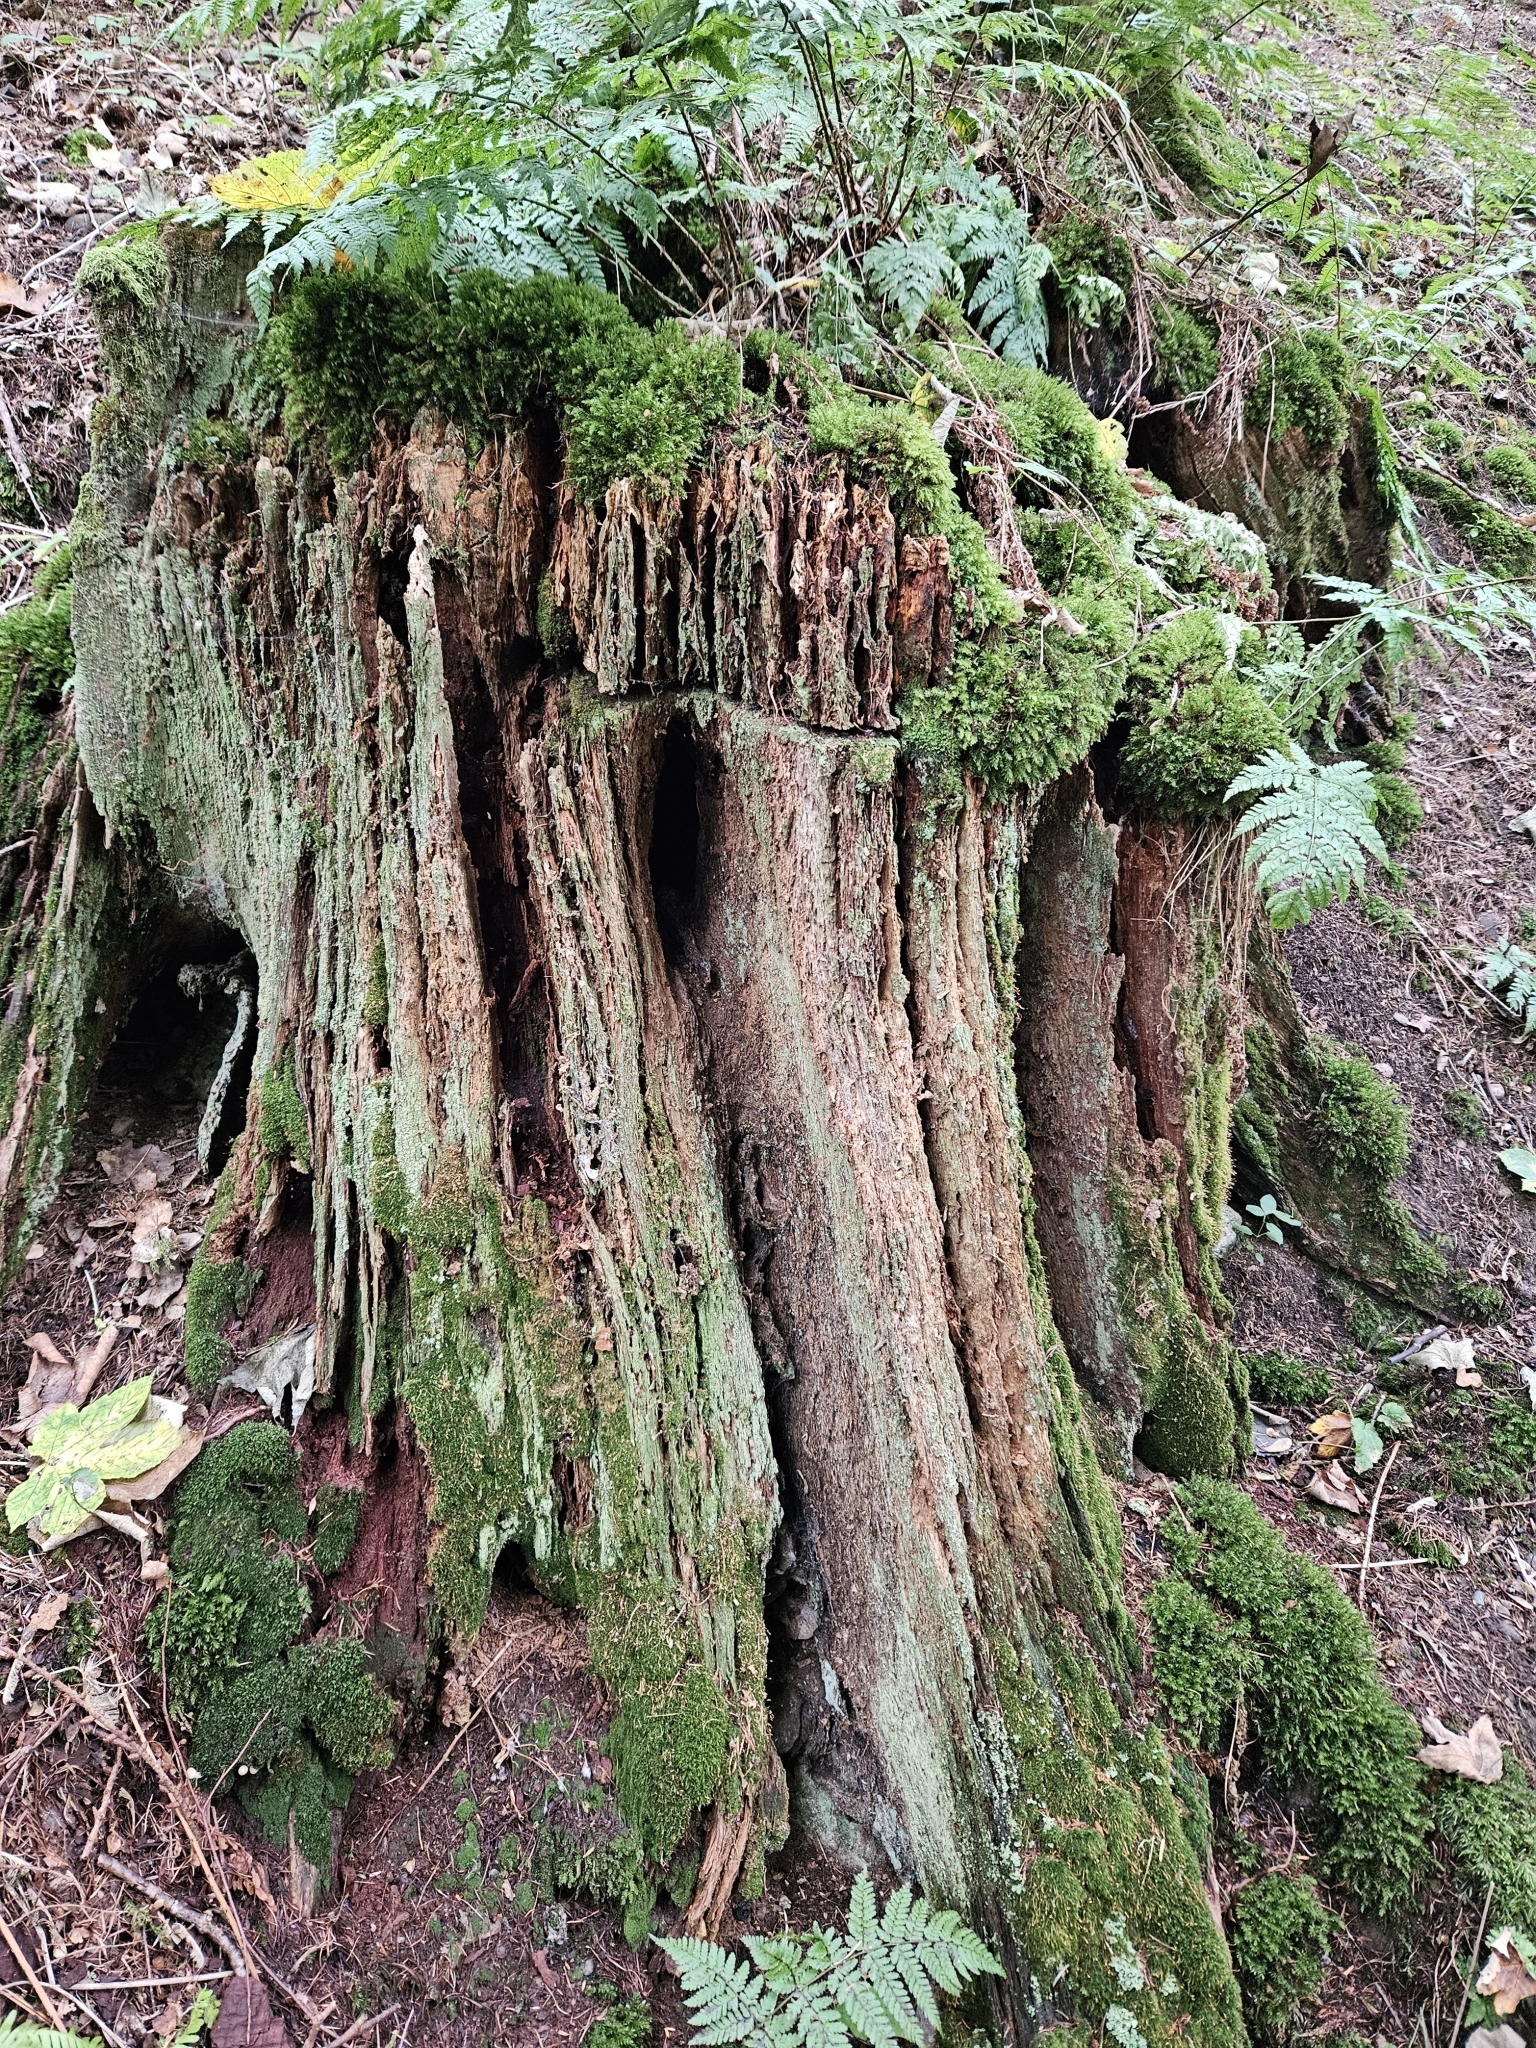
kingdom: Plantae
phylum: Bryophyta
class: Bryopsida
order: Bryales
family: Mniaceae
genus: Mnium
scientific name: Mnium hornum
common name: Swan's-neck leafy moss
